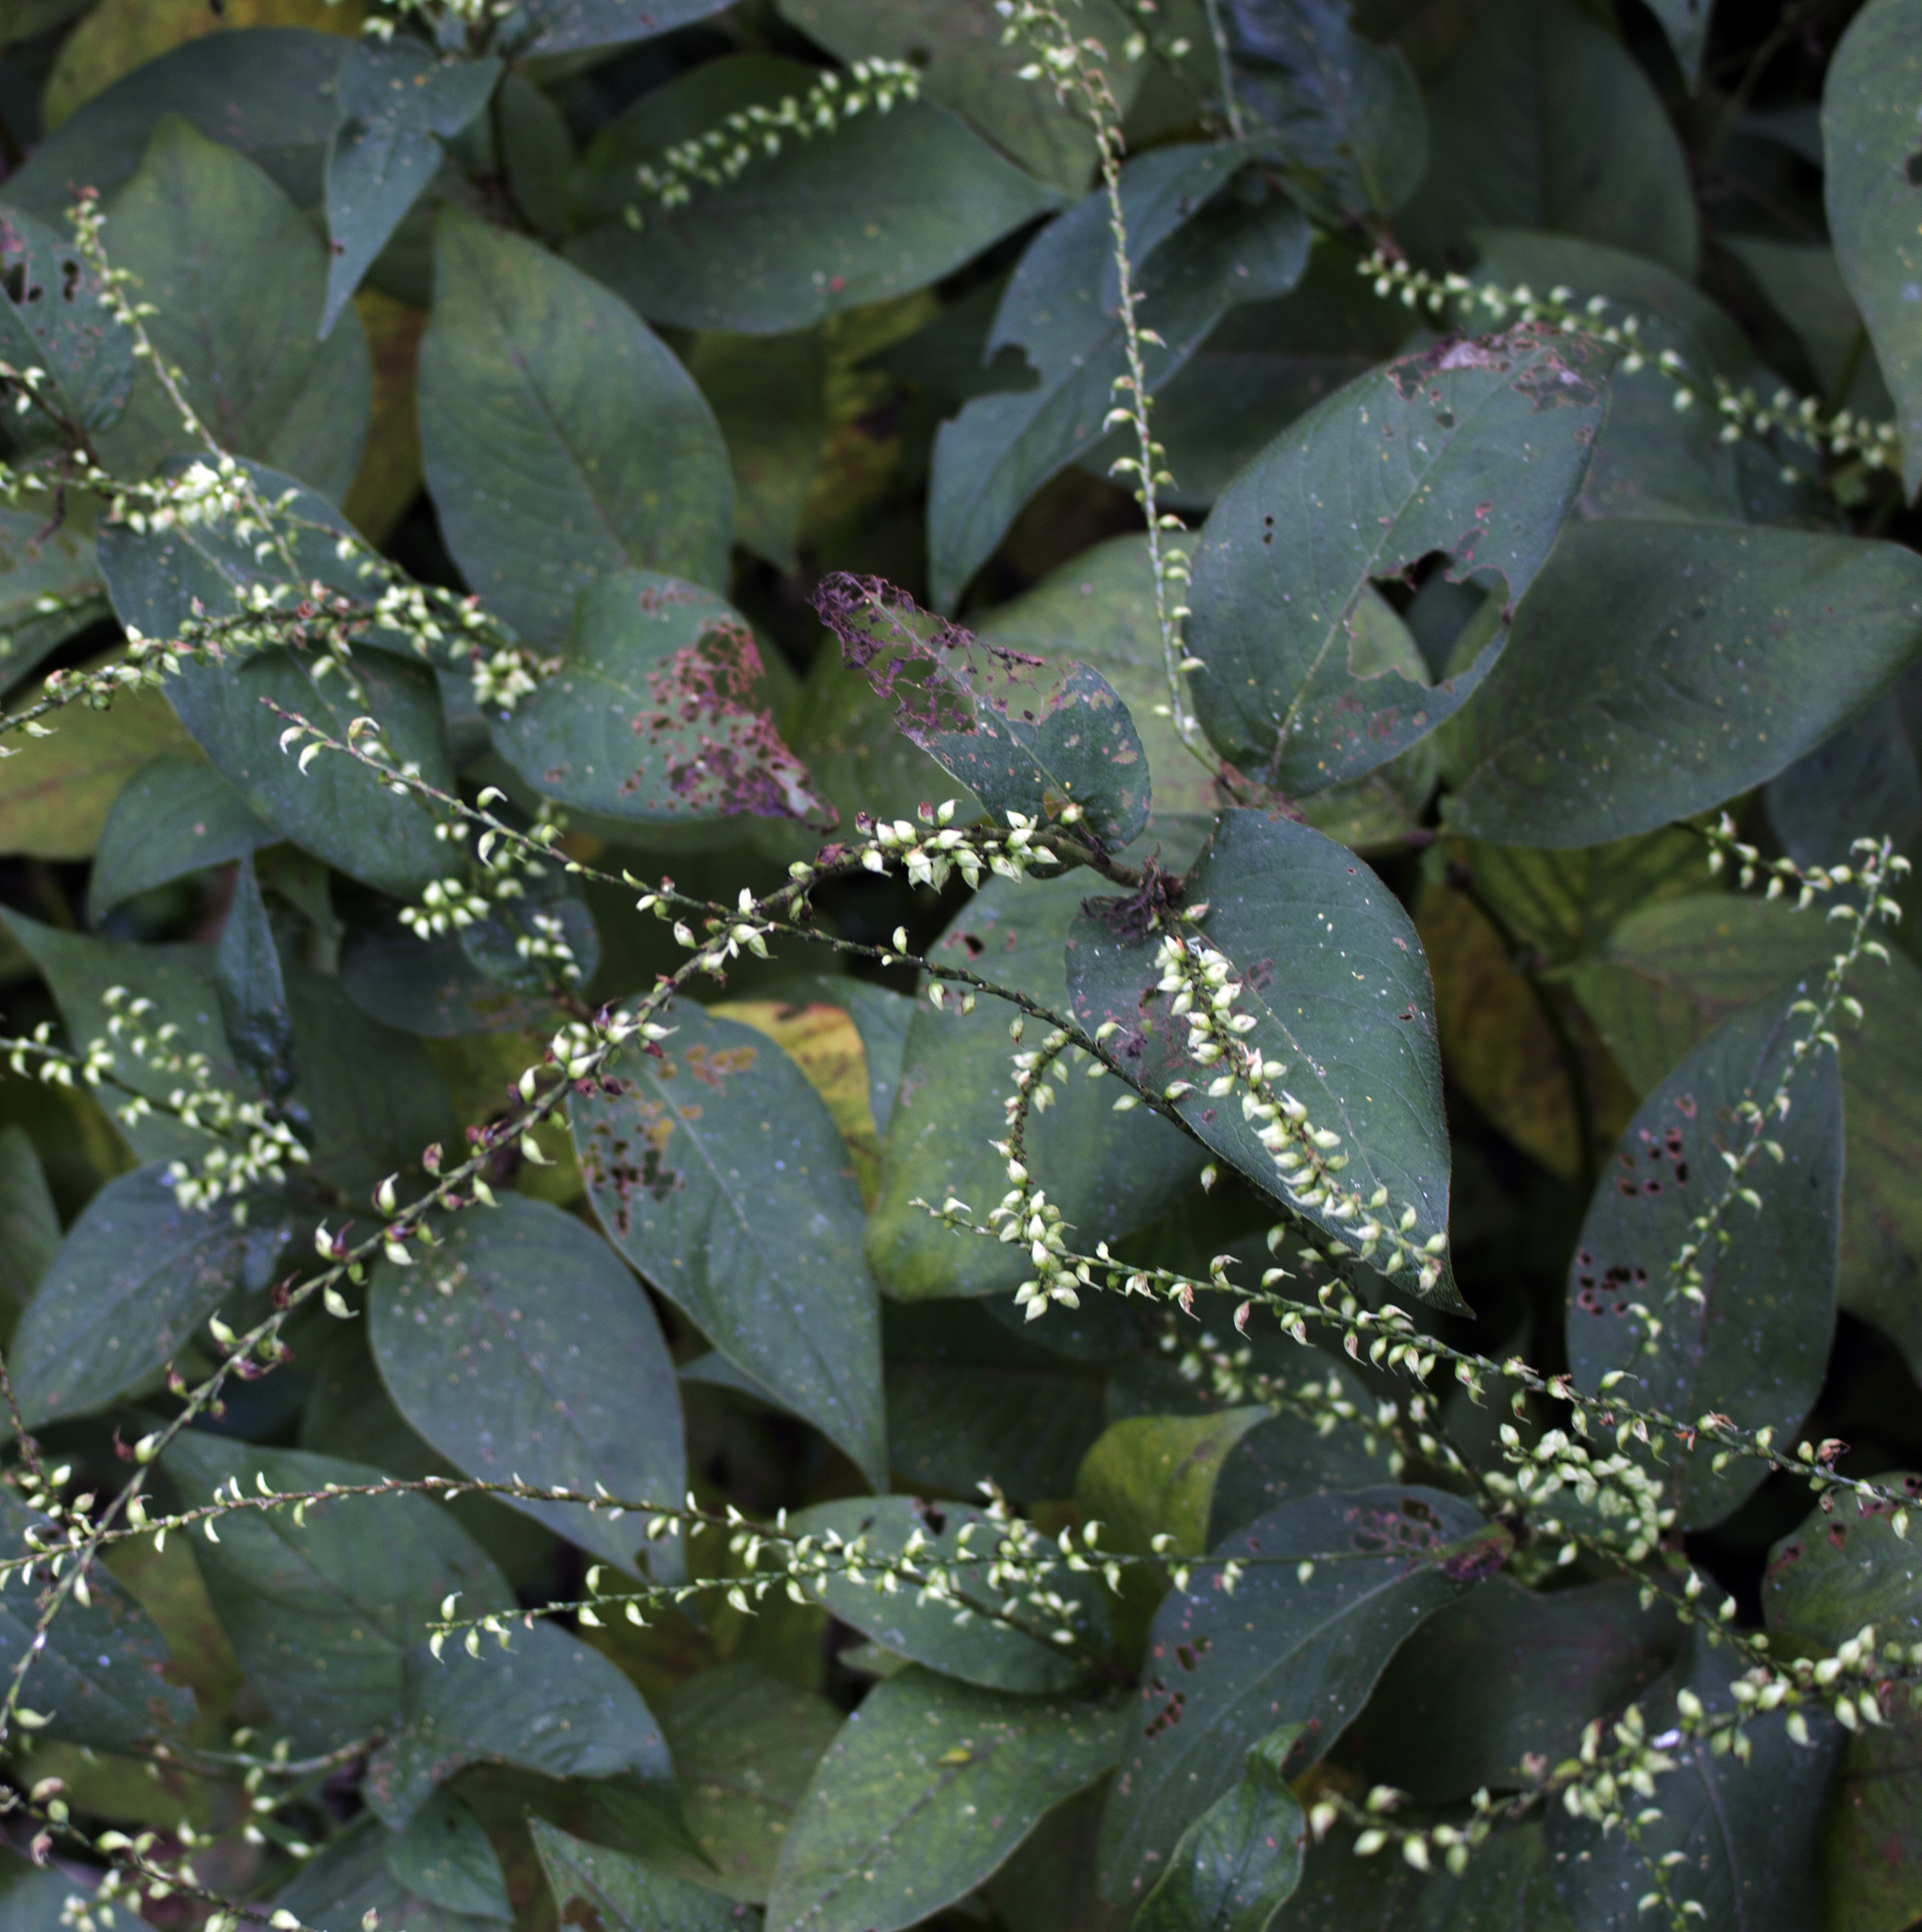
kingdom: Plantae
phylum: Tracheophyta
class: Magnoliopsida
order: Caryophyllales
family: Polygonaceae
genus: Persicaria
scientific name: Persicaria virginiana
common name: Jumpseed
